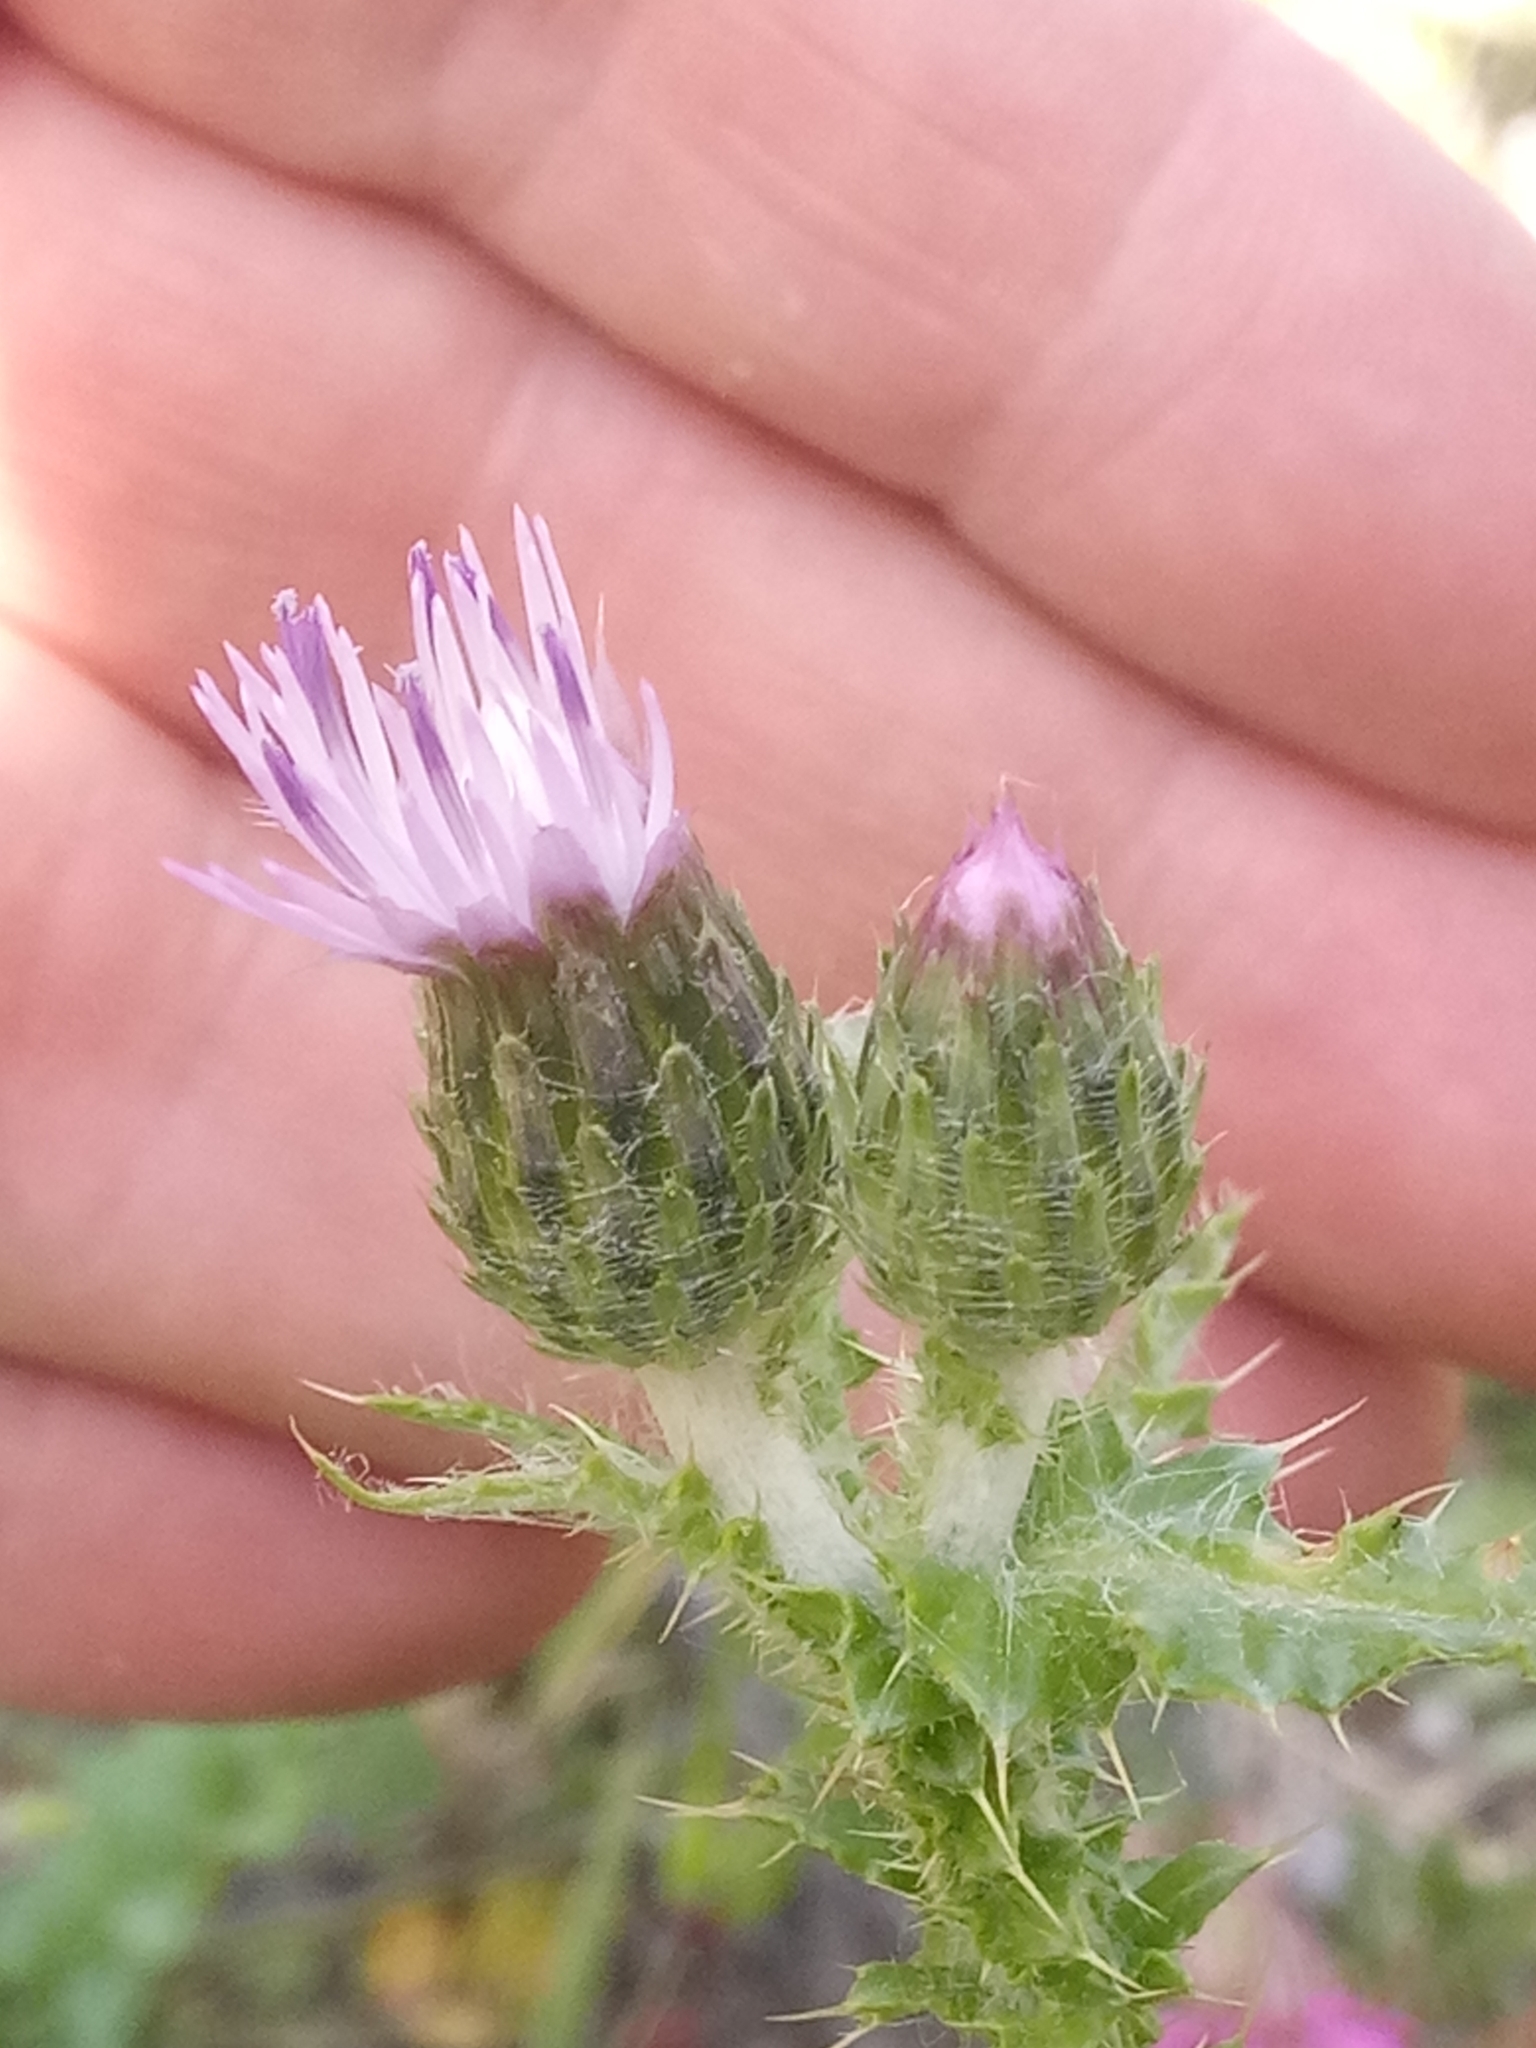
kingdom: Plantae
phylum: Tracheophyta
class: Magnoliopsida
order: Asterales
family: Asteraceae
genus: Carduus
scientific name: Carduus spachianus
